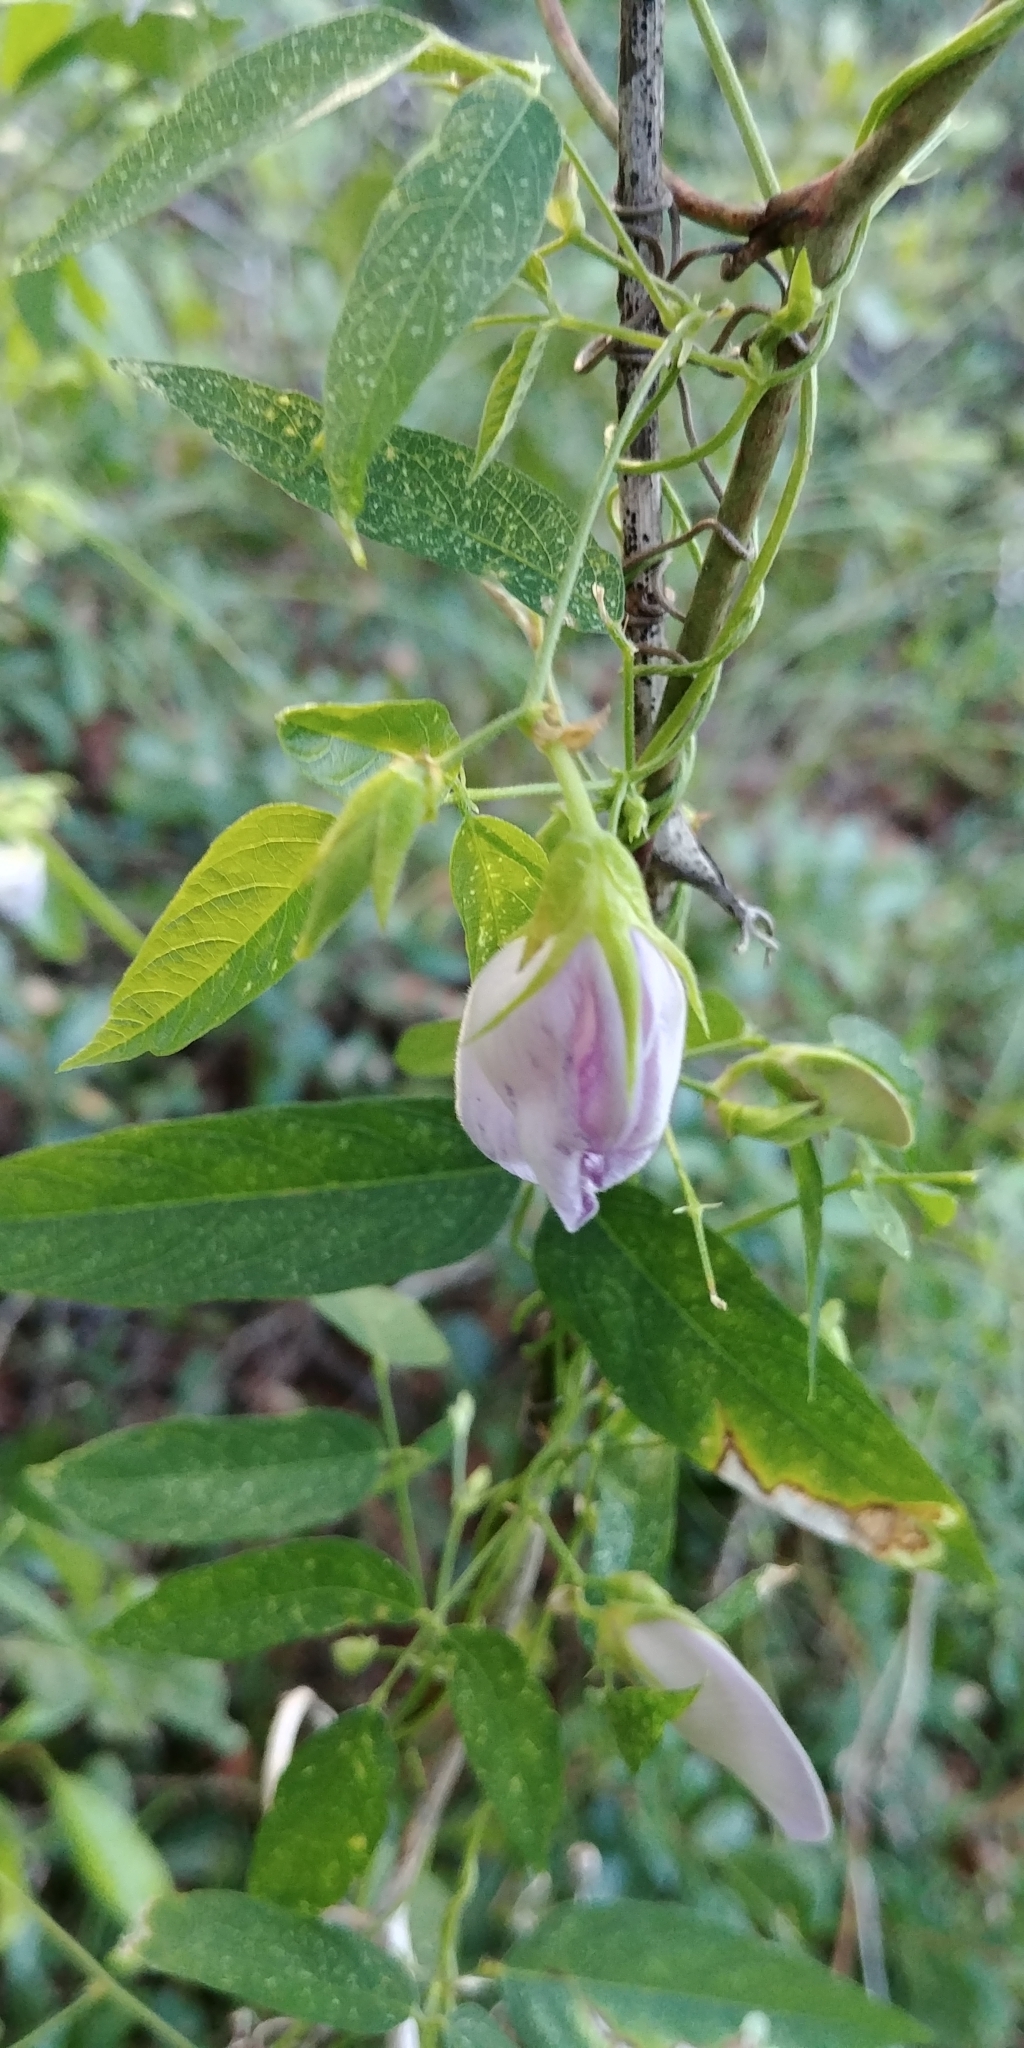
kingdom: Plantae
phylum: Tracheophyta
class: Magnoliopsida
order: Fabales
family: Fabaceae
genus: Centrosema
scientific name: Centrosema virginianum
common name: Butterfly-pea
